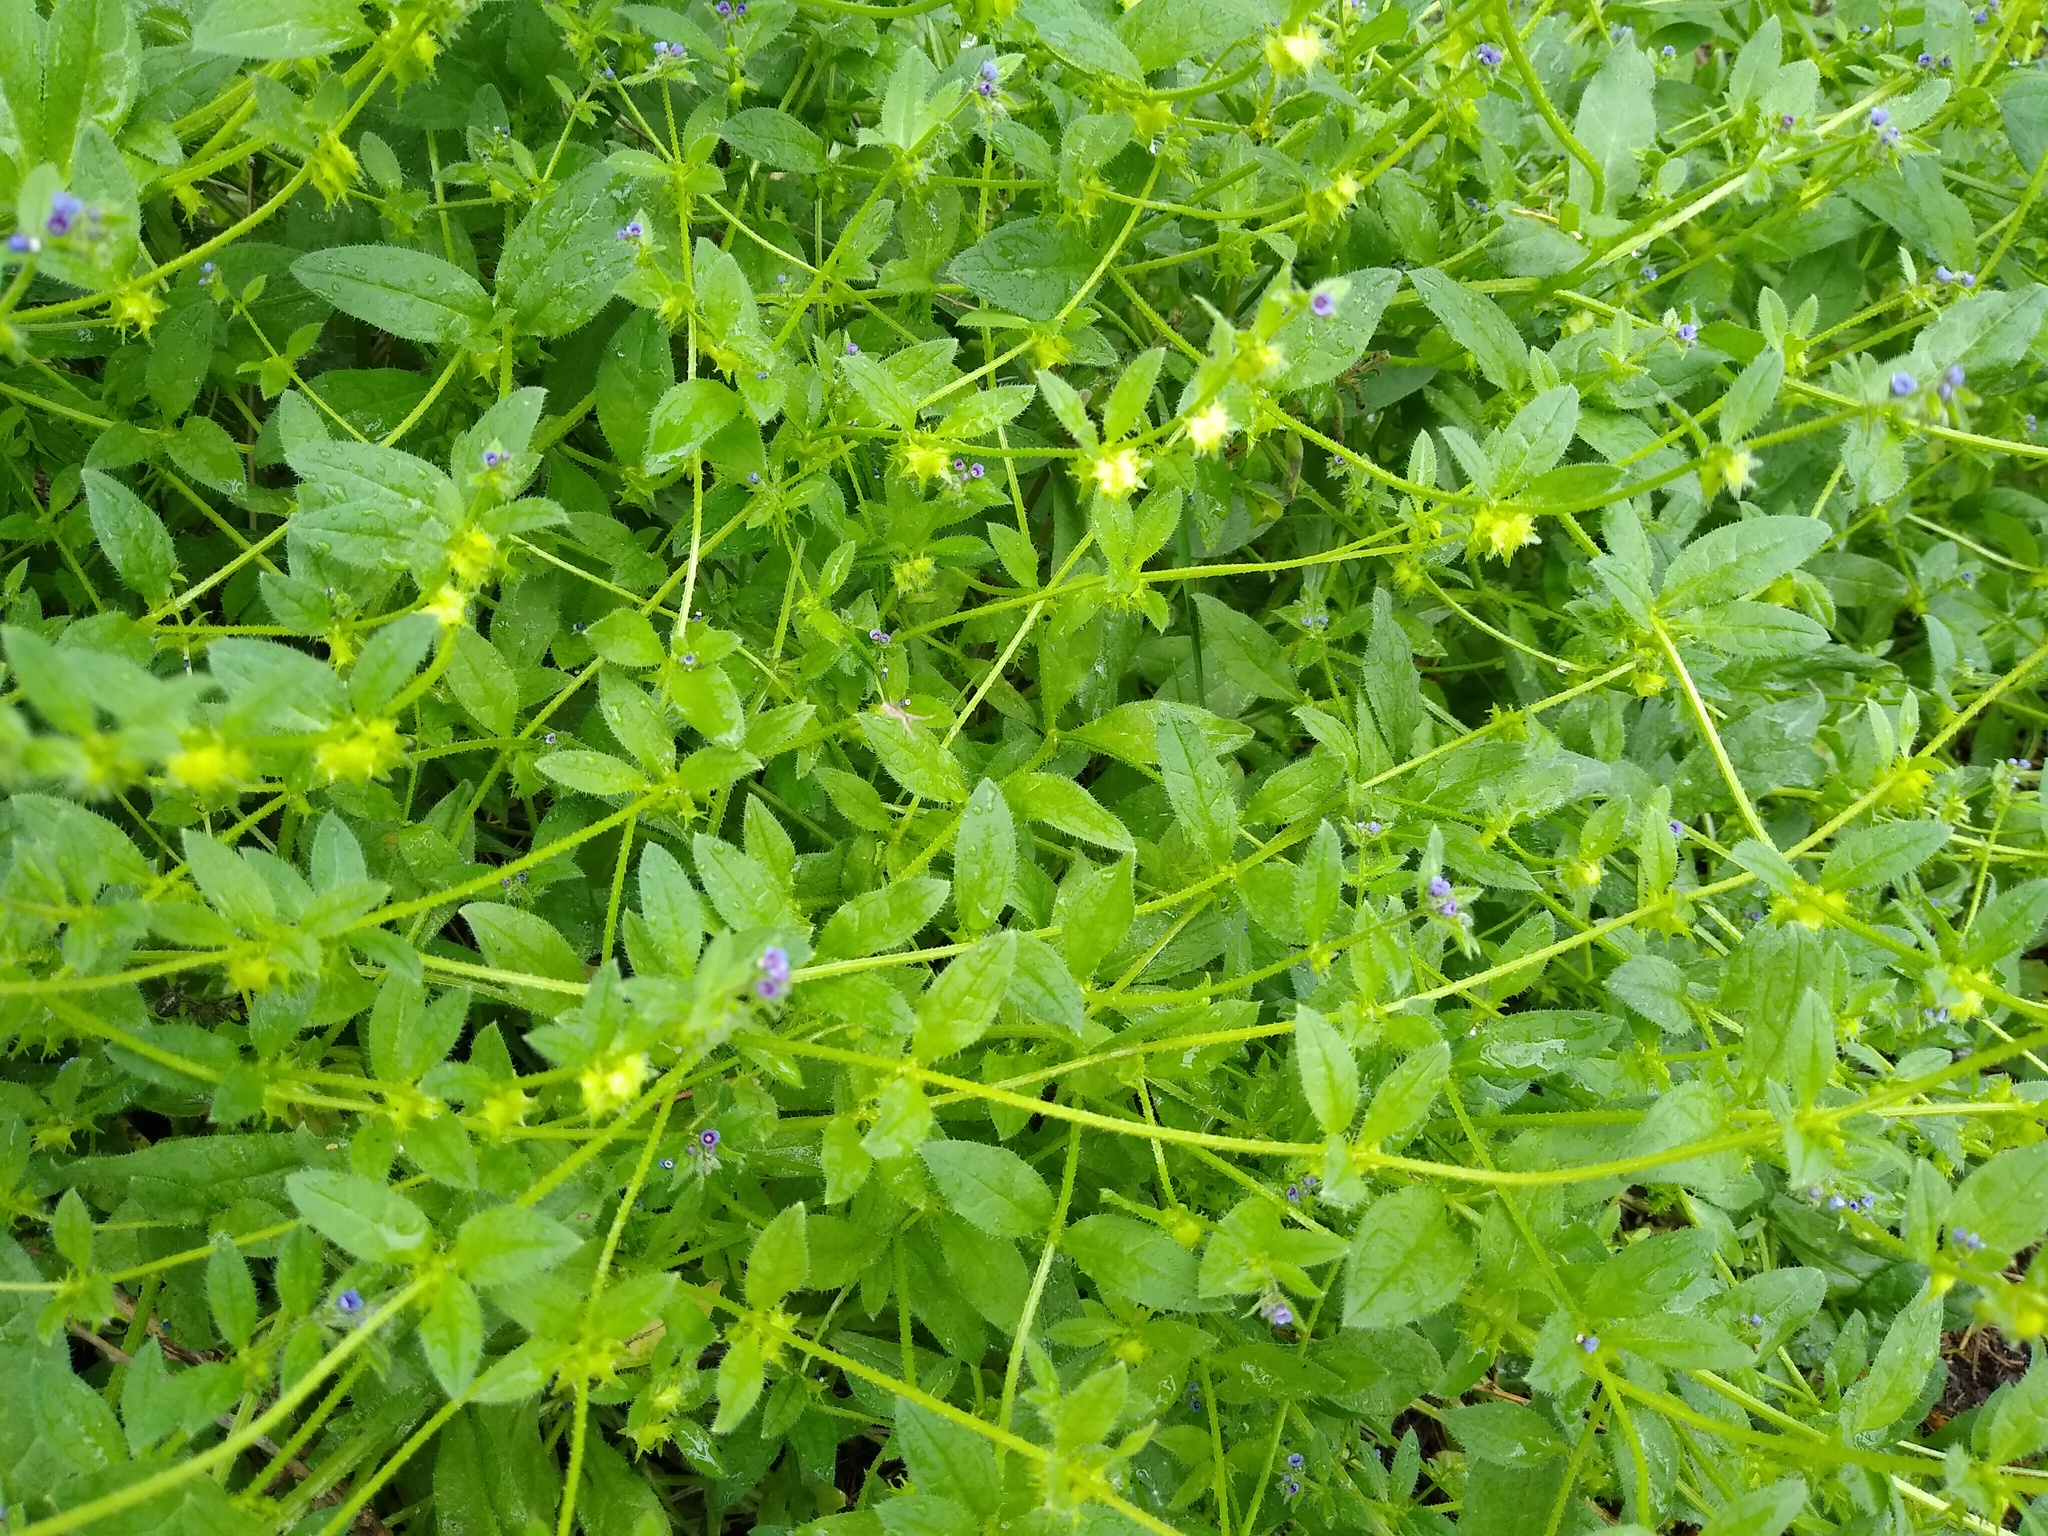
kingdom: Plantae
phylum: Tracheophyta
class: Magnoliopsida
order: Boraginales
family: Boraginaceae
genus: Asperugo
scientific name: Asperugo procumbens
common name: Madwort
